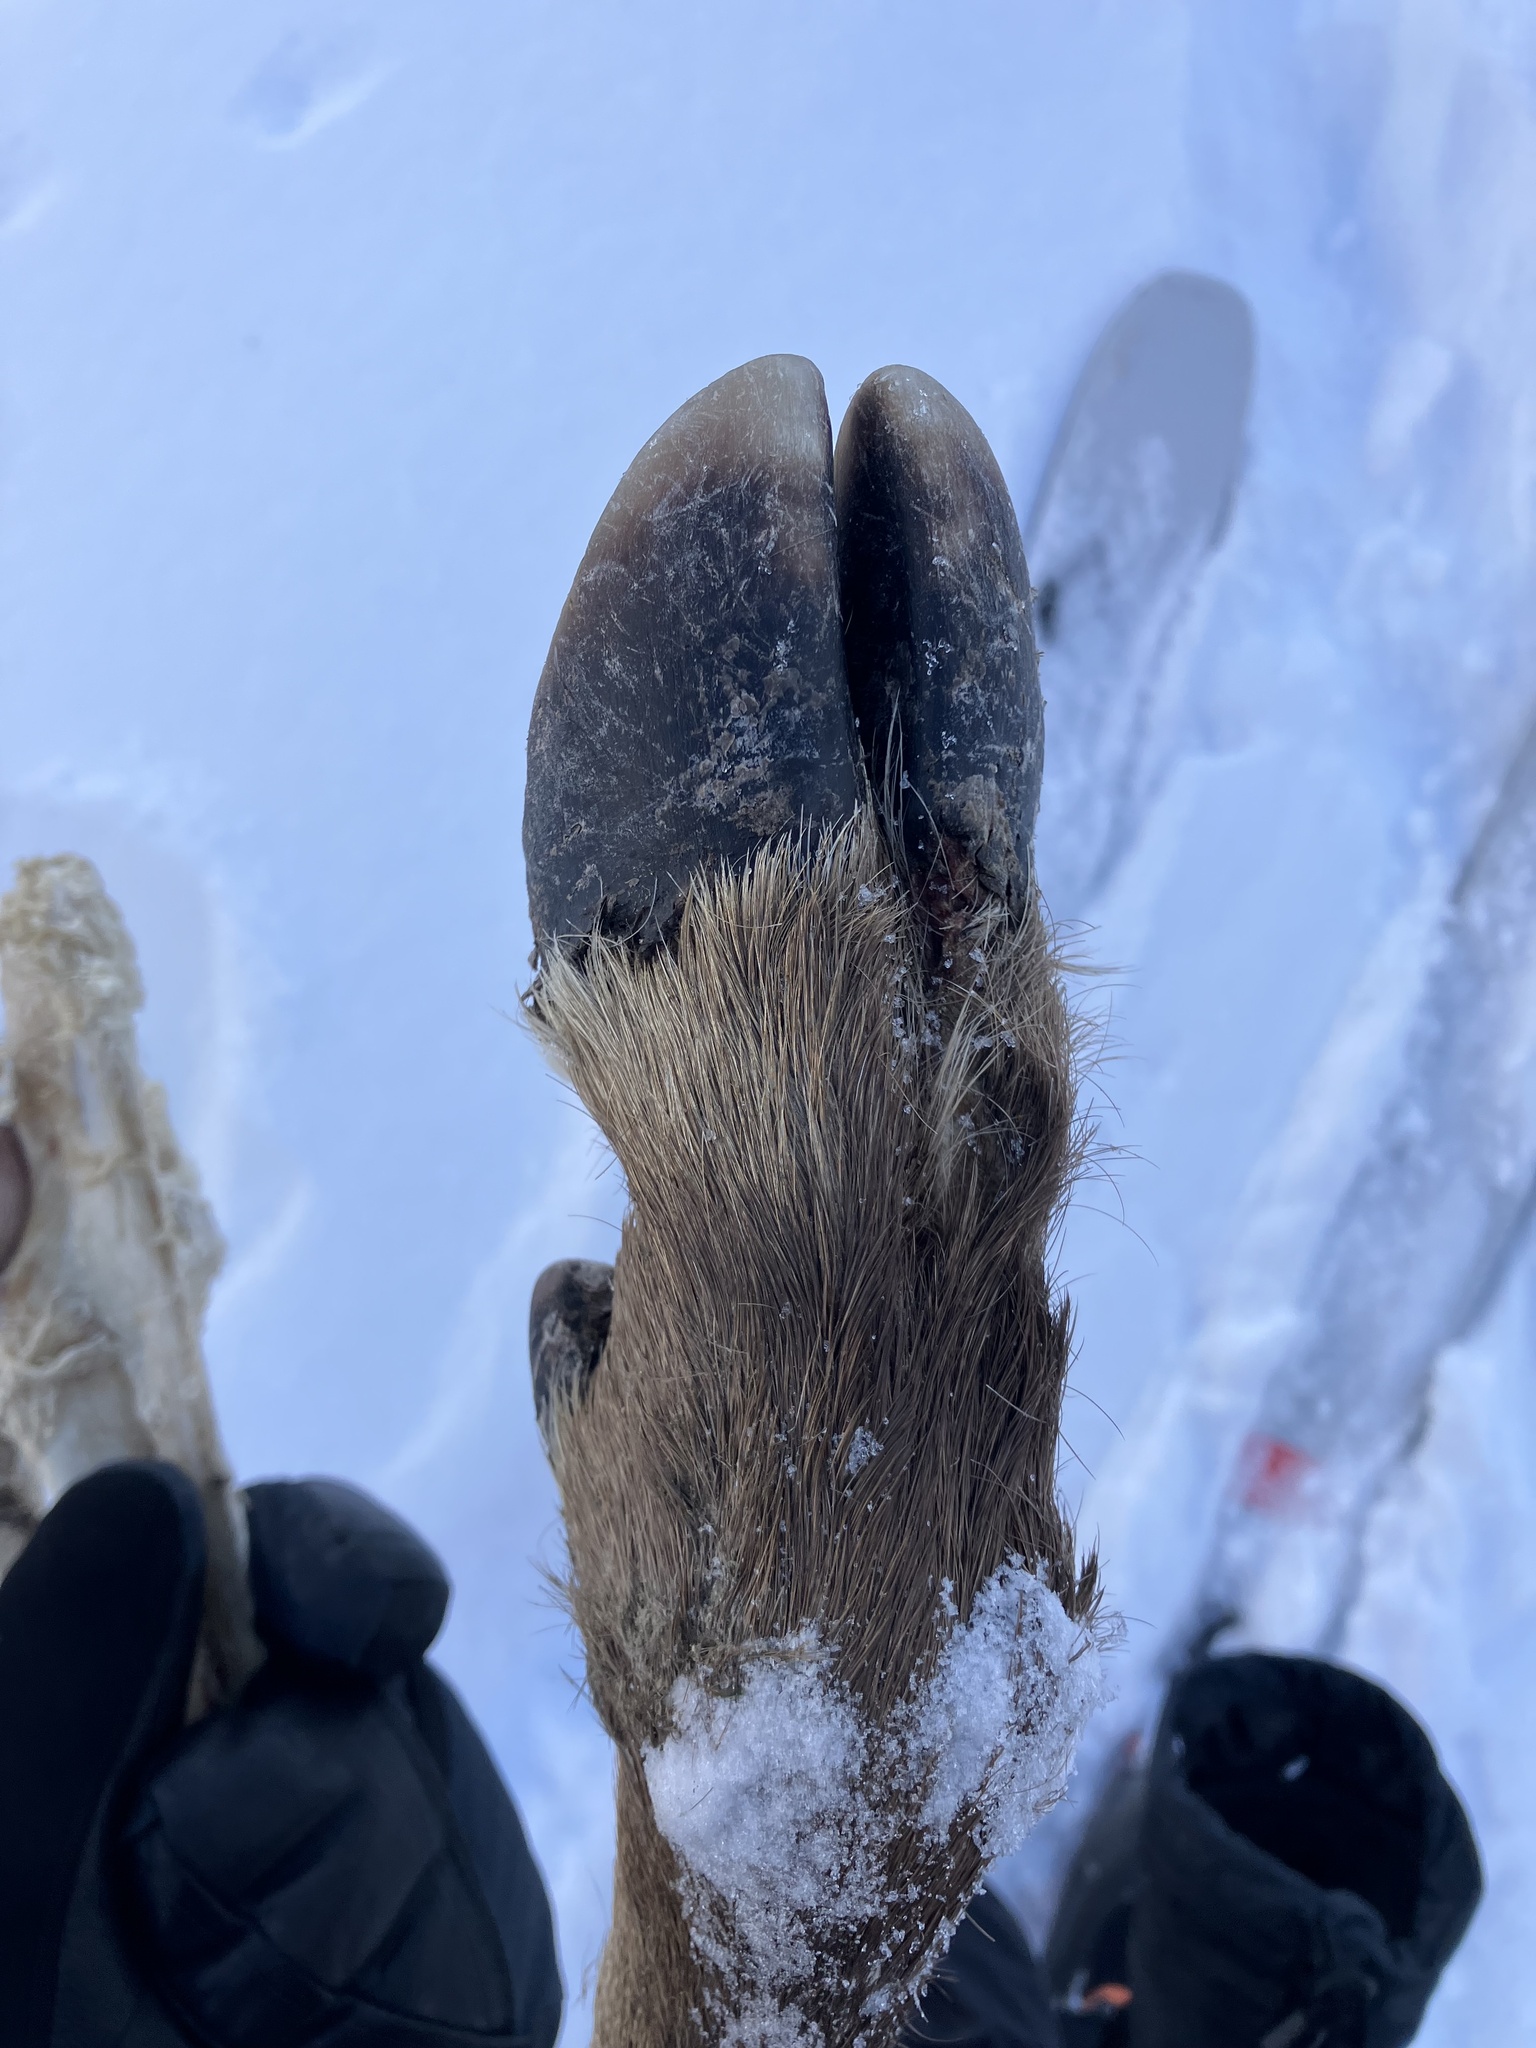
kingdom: Animalia
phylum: Chordata
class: Mammalia
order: Artiodactyla
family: Cervidae
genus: Cervus
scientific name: Cervus elaphus
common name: Red deer
